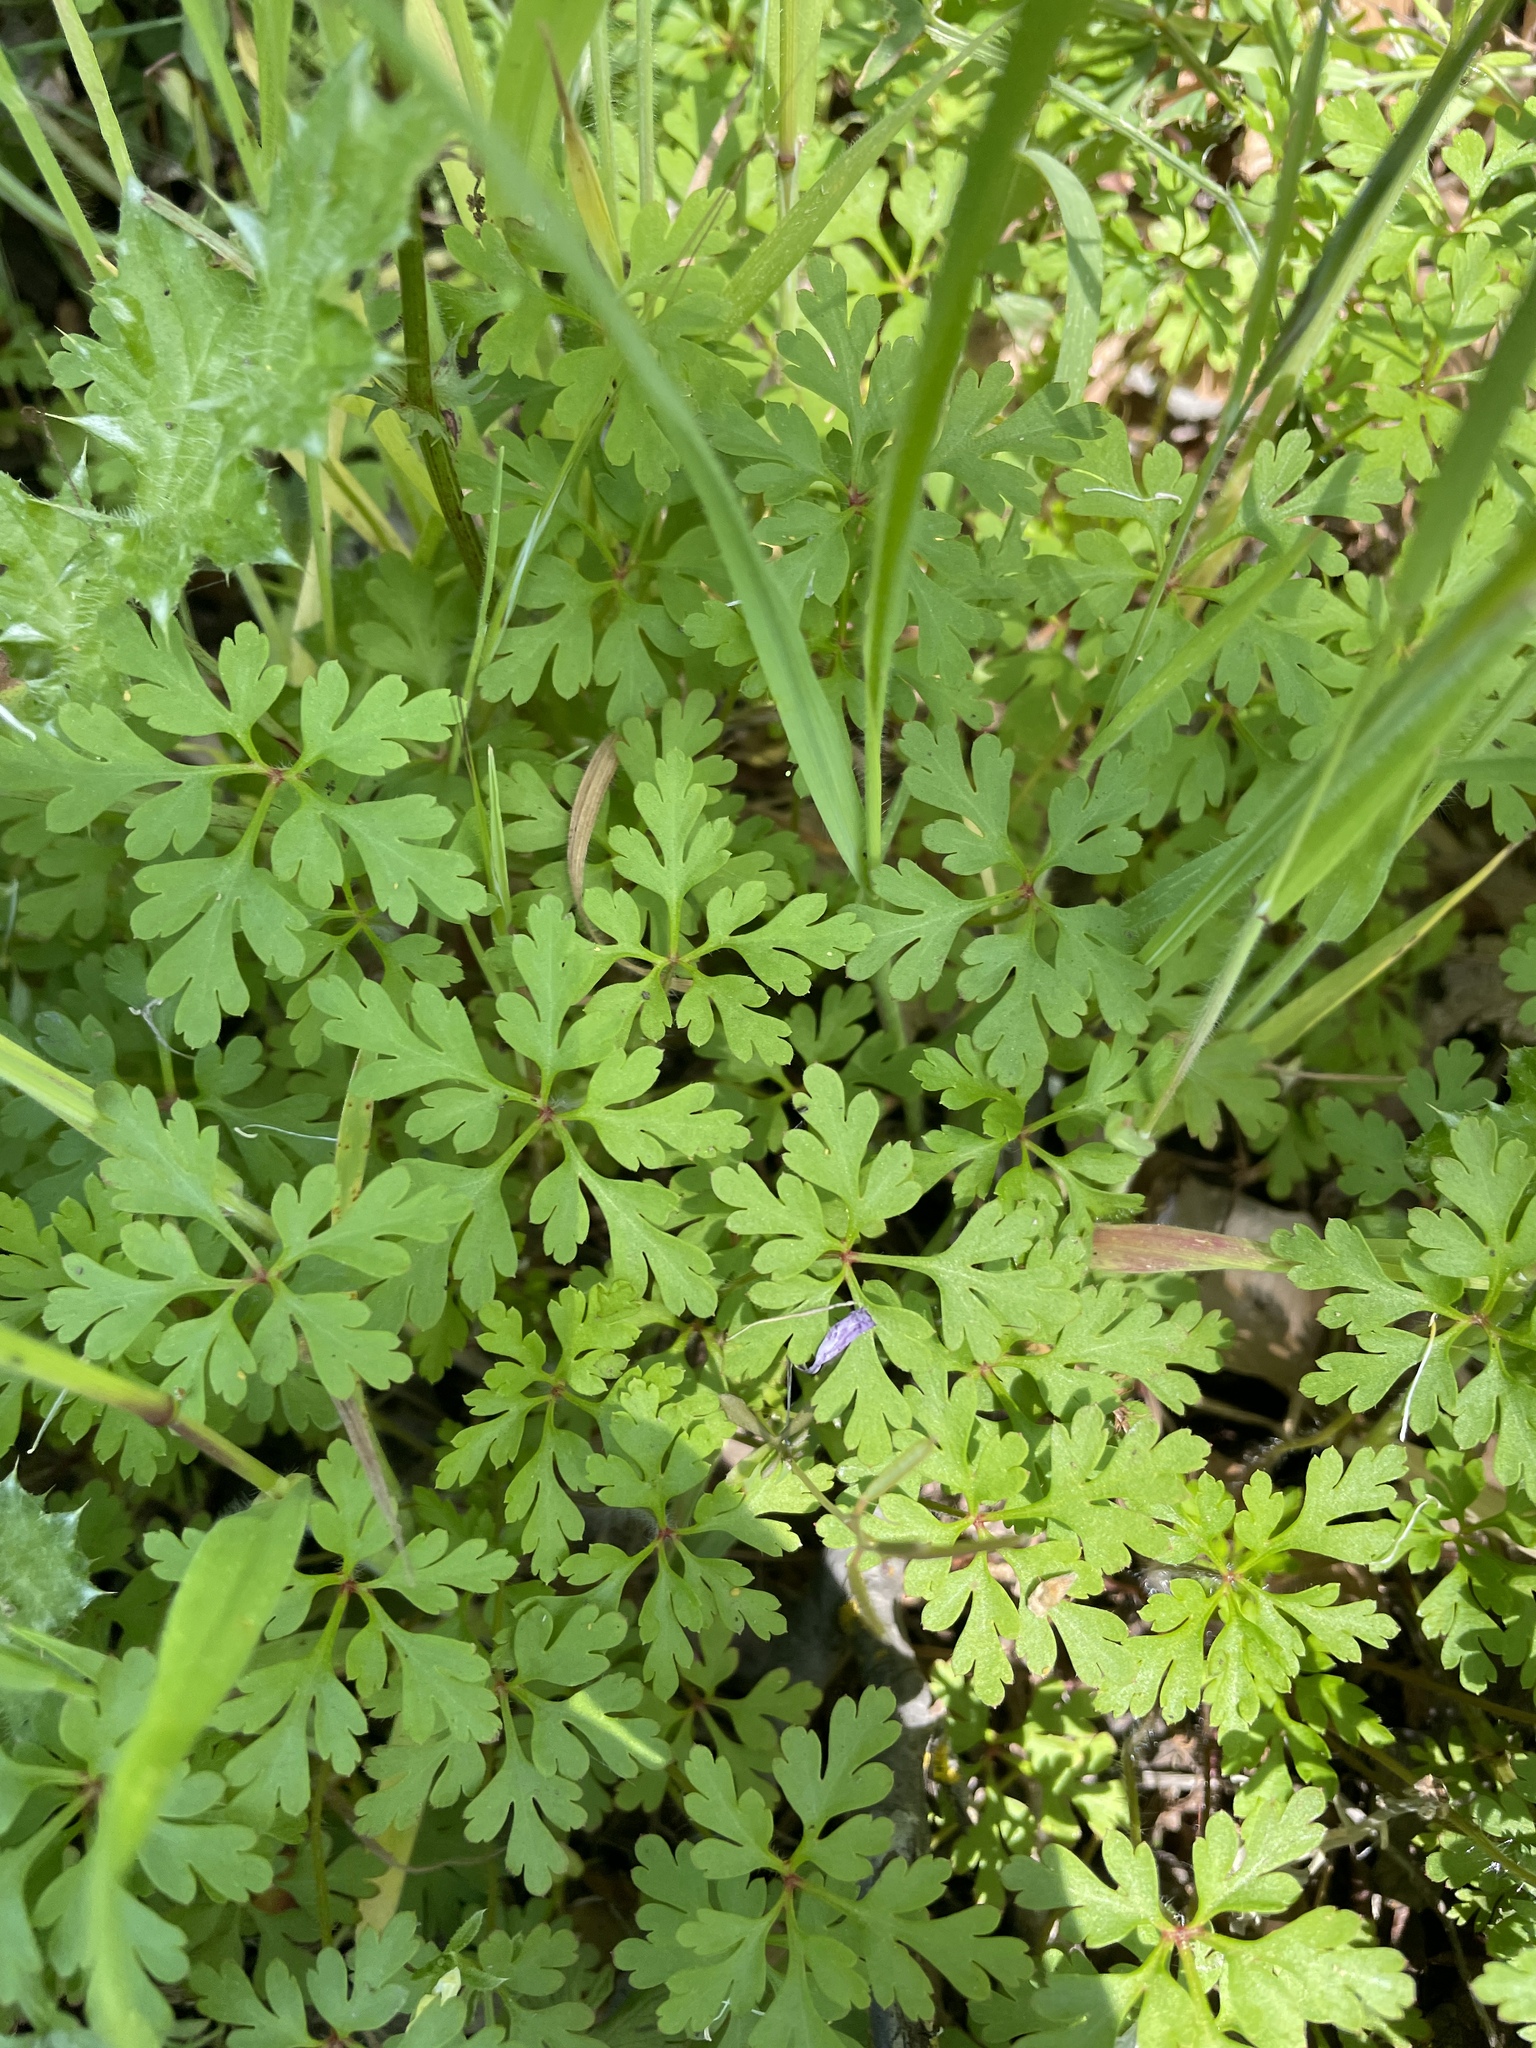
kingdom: Plantae
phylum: Tracheophyta
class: Magnoliopsida
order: Geraniales
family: Geraniaceae
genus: Geranium
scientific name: Geranium
